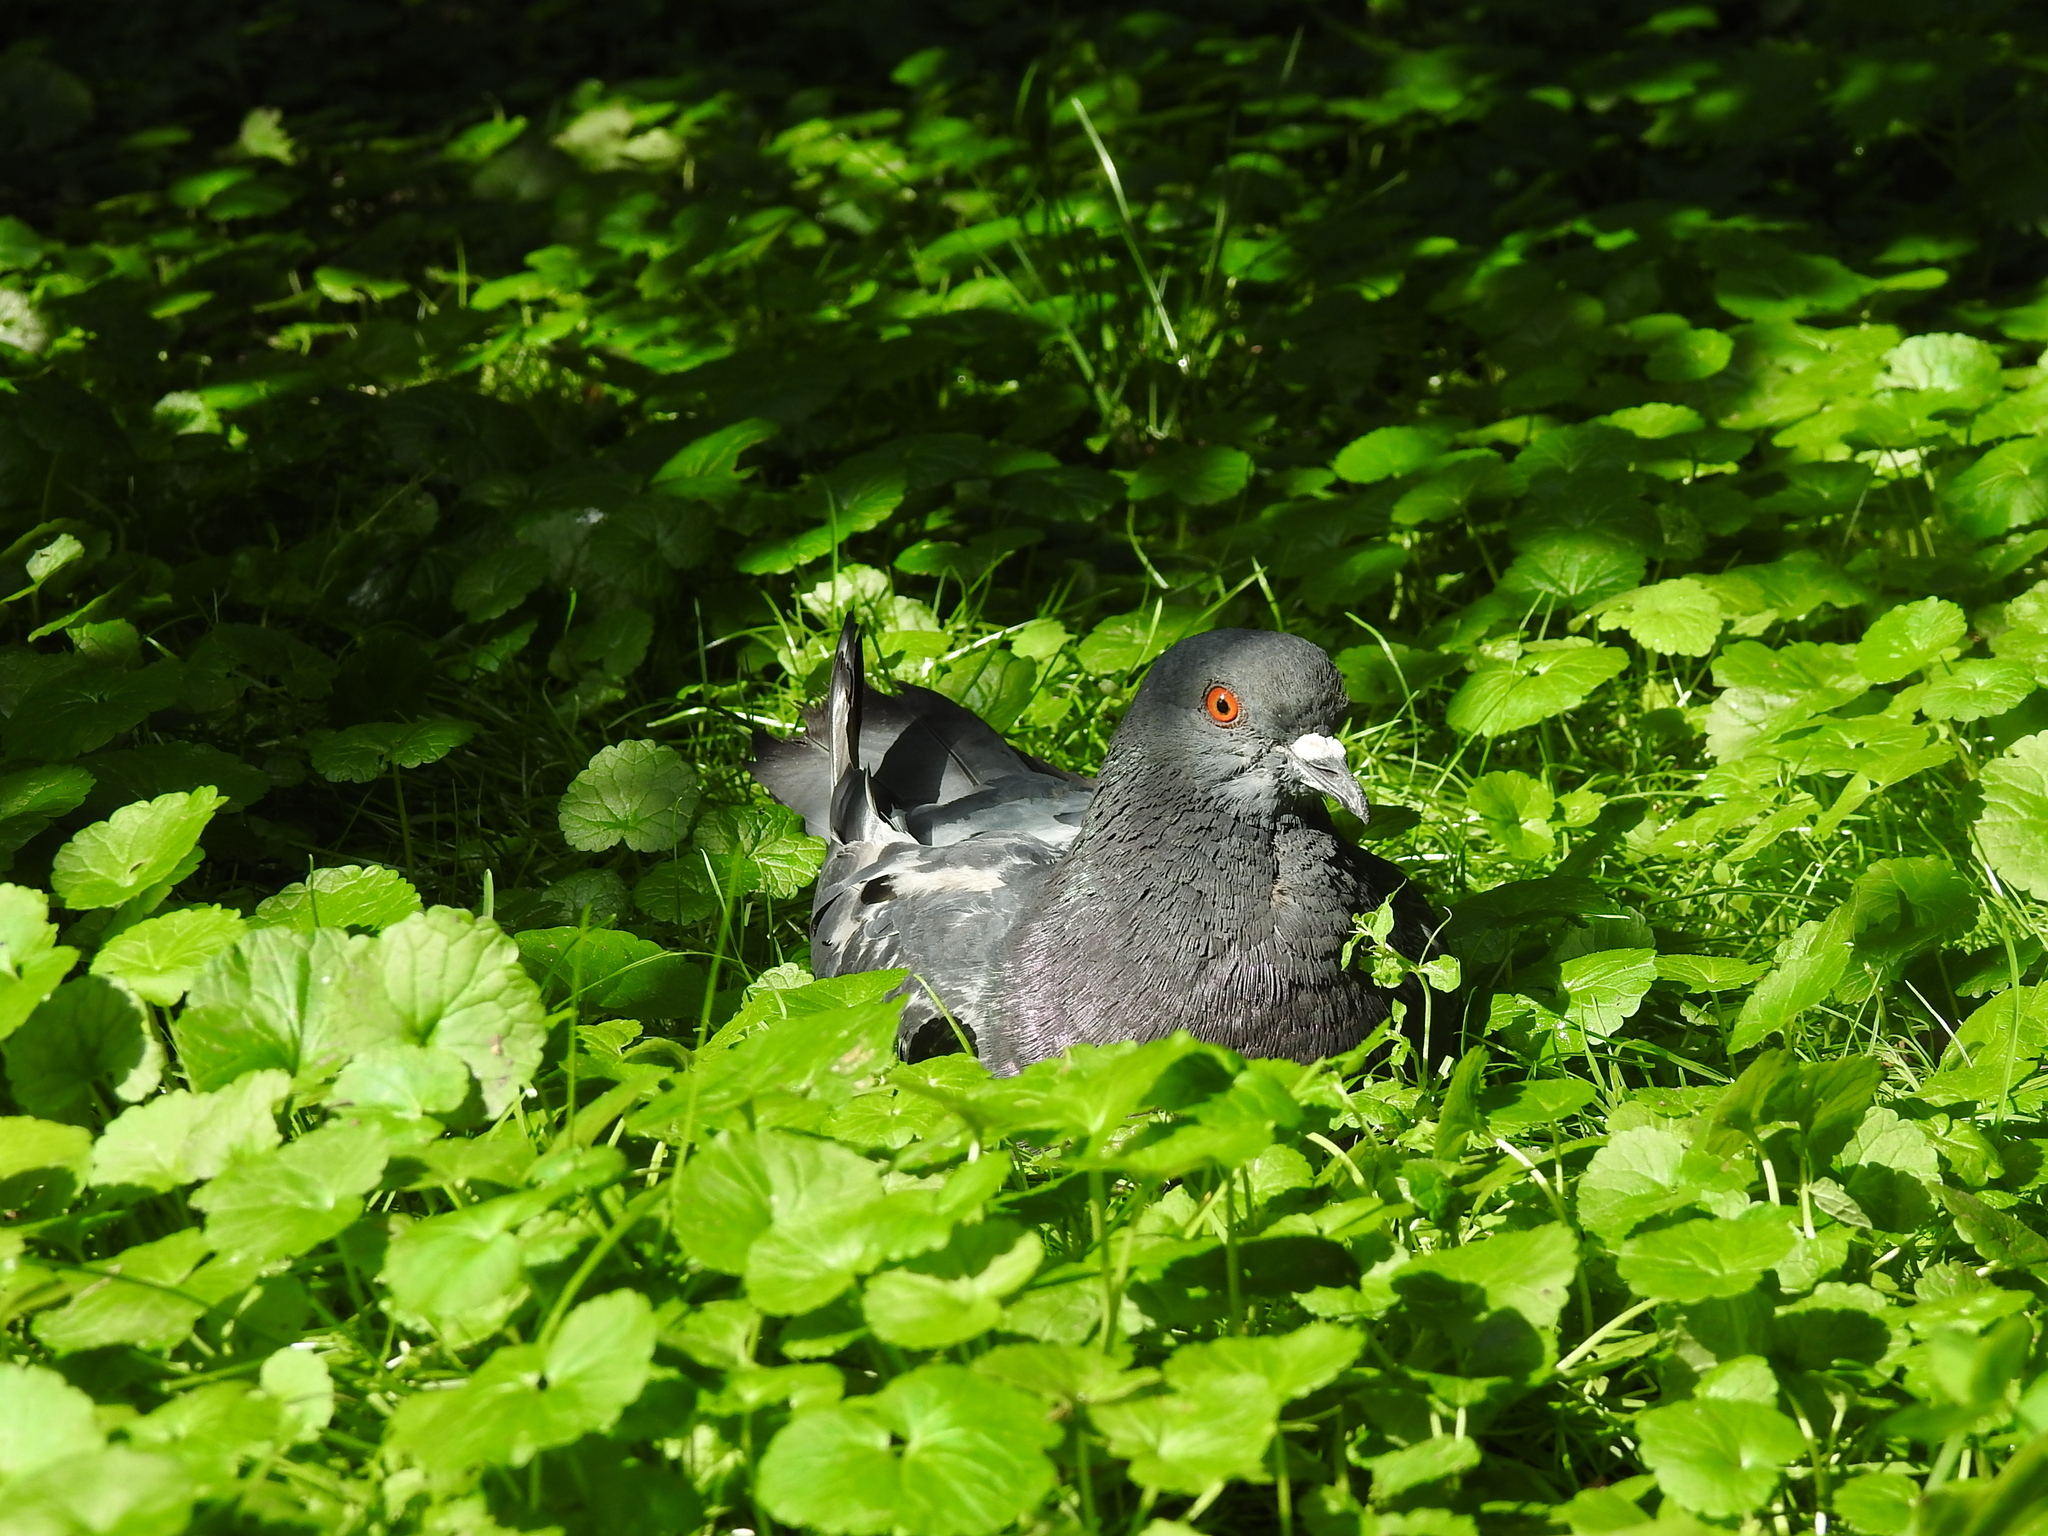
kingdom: Animalia
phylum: Chordata
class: Aves
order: Columbiformes
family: Columbidae
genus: Columba
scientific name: Columba livia
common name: Rock pigeon
